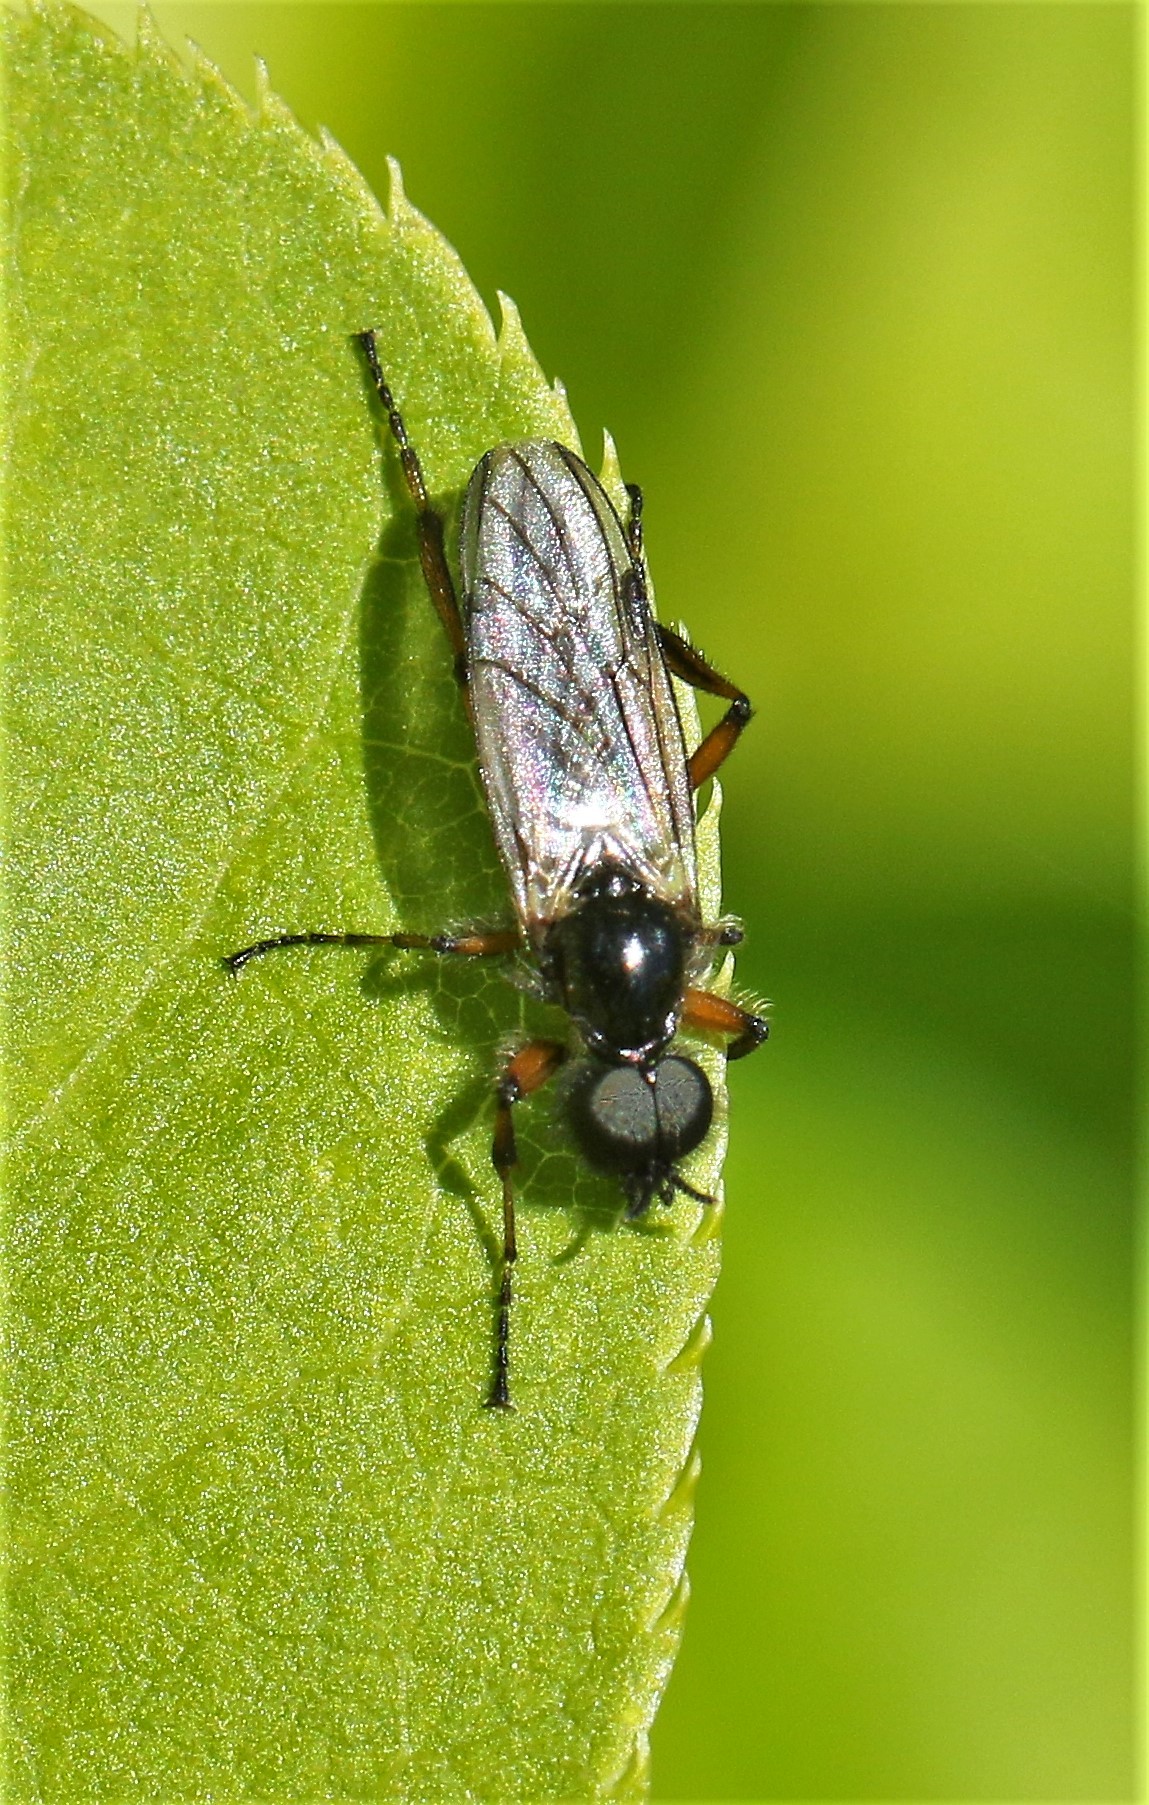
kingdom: Animalia
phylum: Arthropoda
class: Insecta
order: Diptera
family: Bibionidae
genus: Bibio
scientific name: Bibio xanthopus
